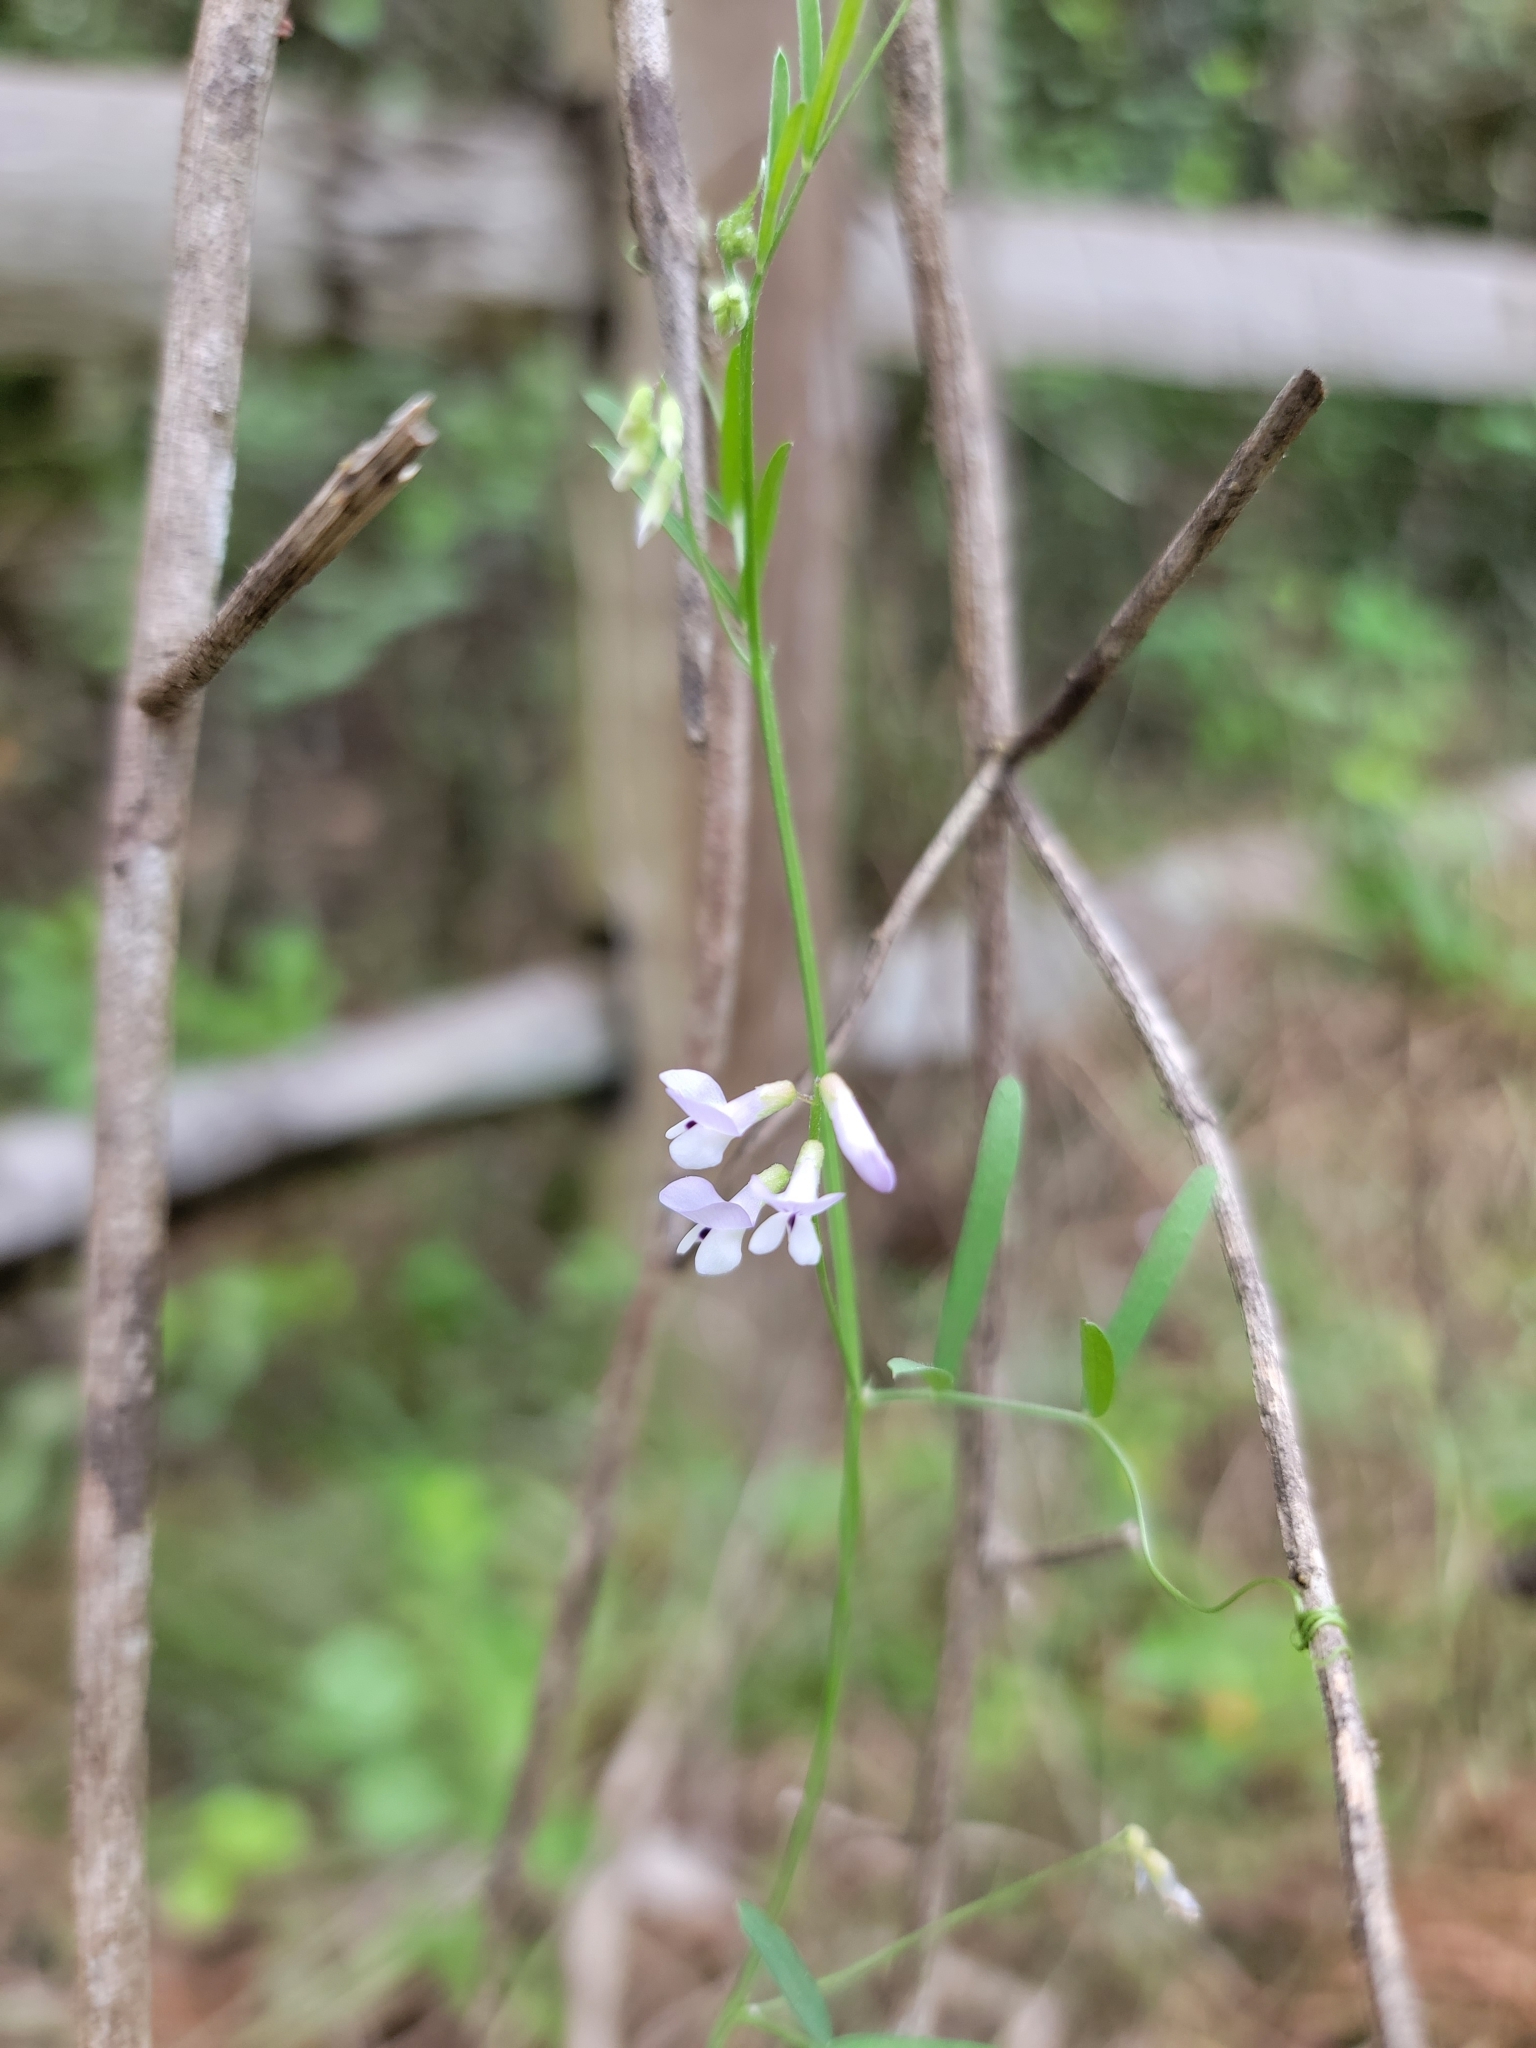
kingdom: Plantae
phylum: Tracheophyta
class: Magnoliopsida
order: Fabales
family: Fabaceae
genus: Vicia
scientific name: Vicia acutifolia
